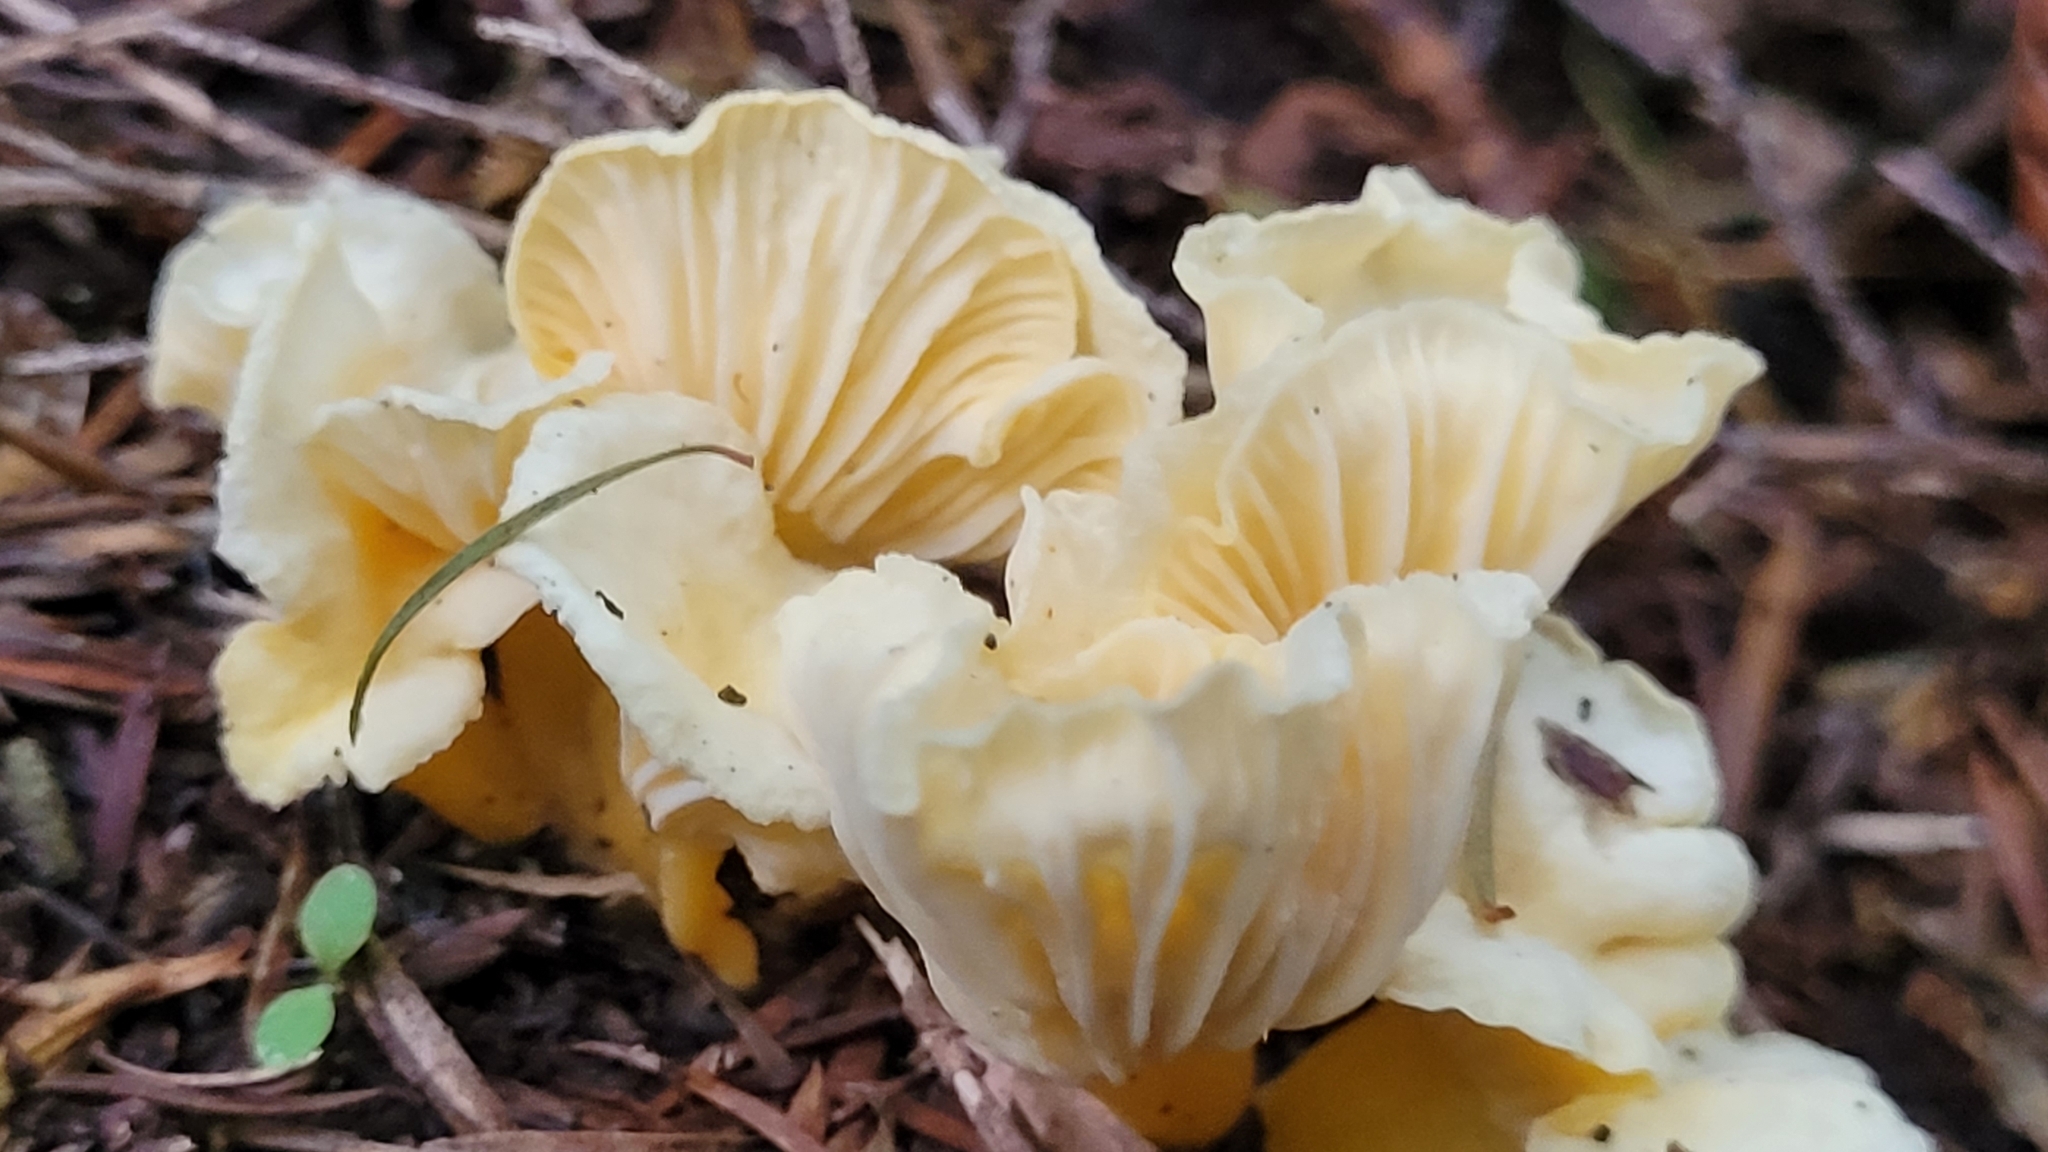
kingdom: Fungi
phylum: Basidiomycota
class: Agaricomycetes
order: Cantharellales
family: Hydnaceae
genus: Cantharellus
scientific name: Cantharellus wellingtonensis
